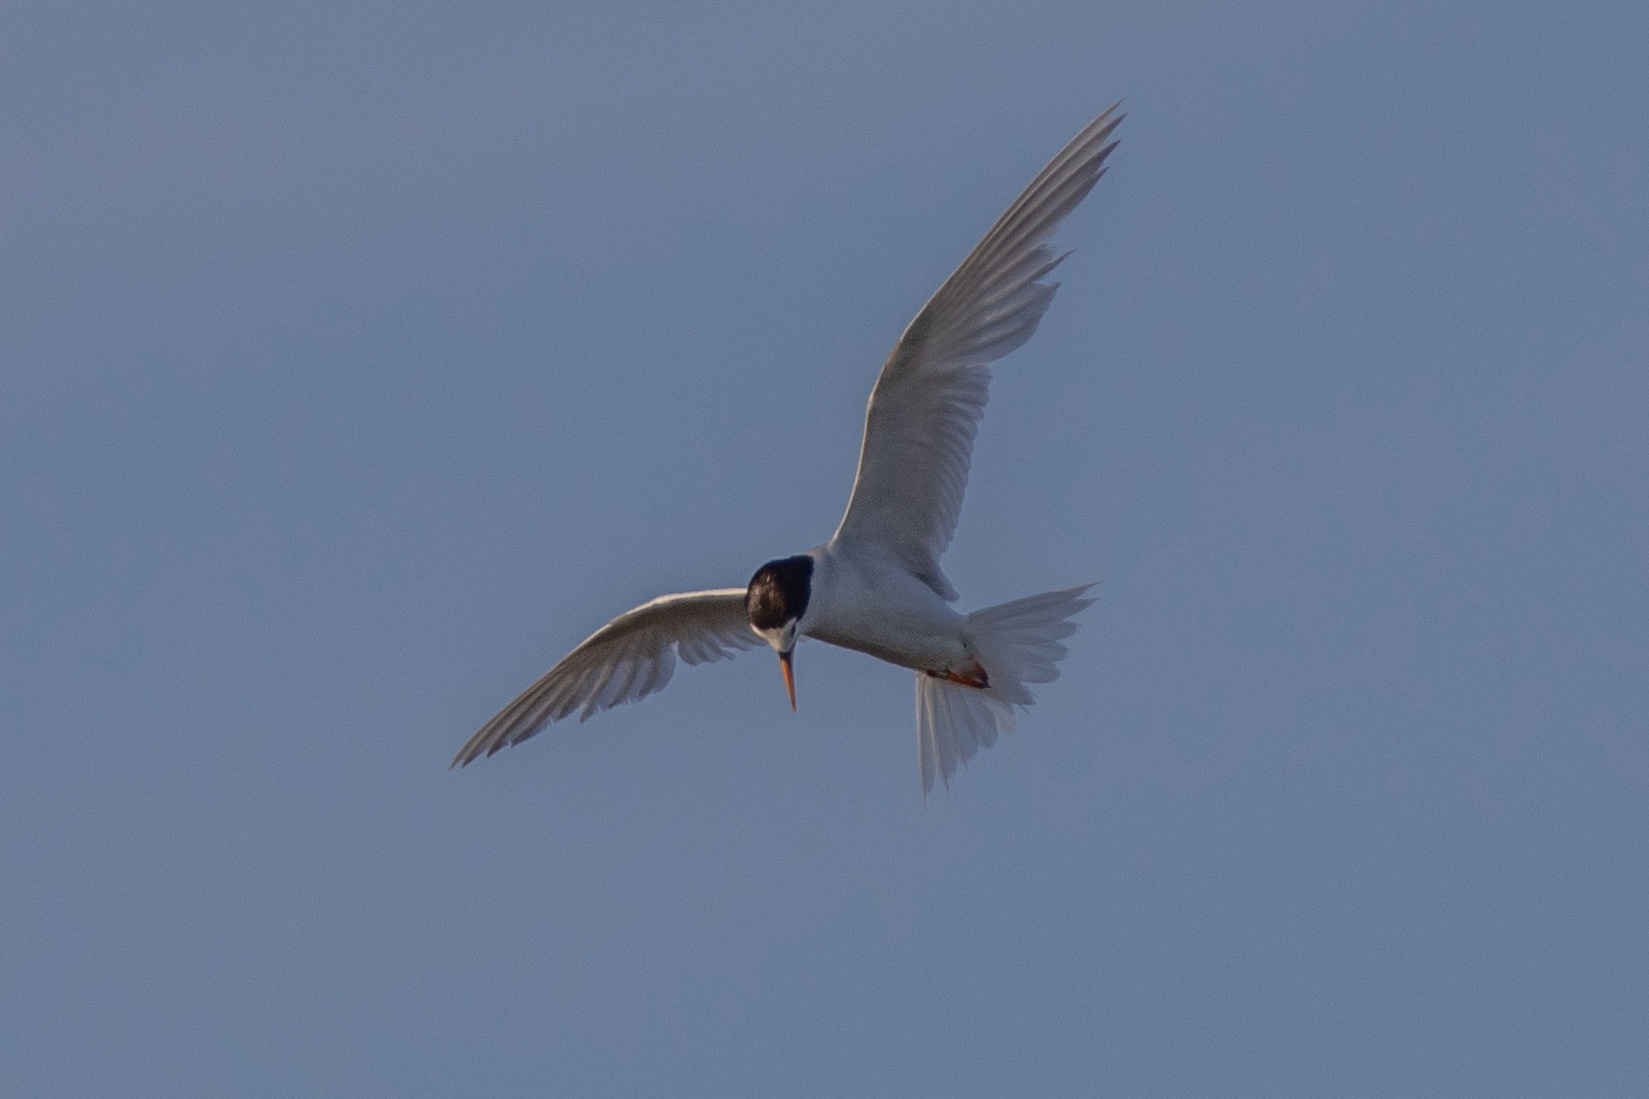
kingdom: Animalia
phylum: Chordata
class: Aves
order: Charadriiformes
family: Laridae
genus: Sternula
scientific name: Sternula nereis
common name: Fairy tern
